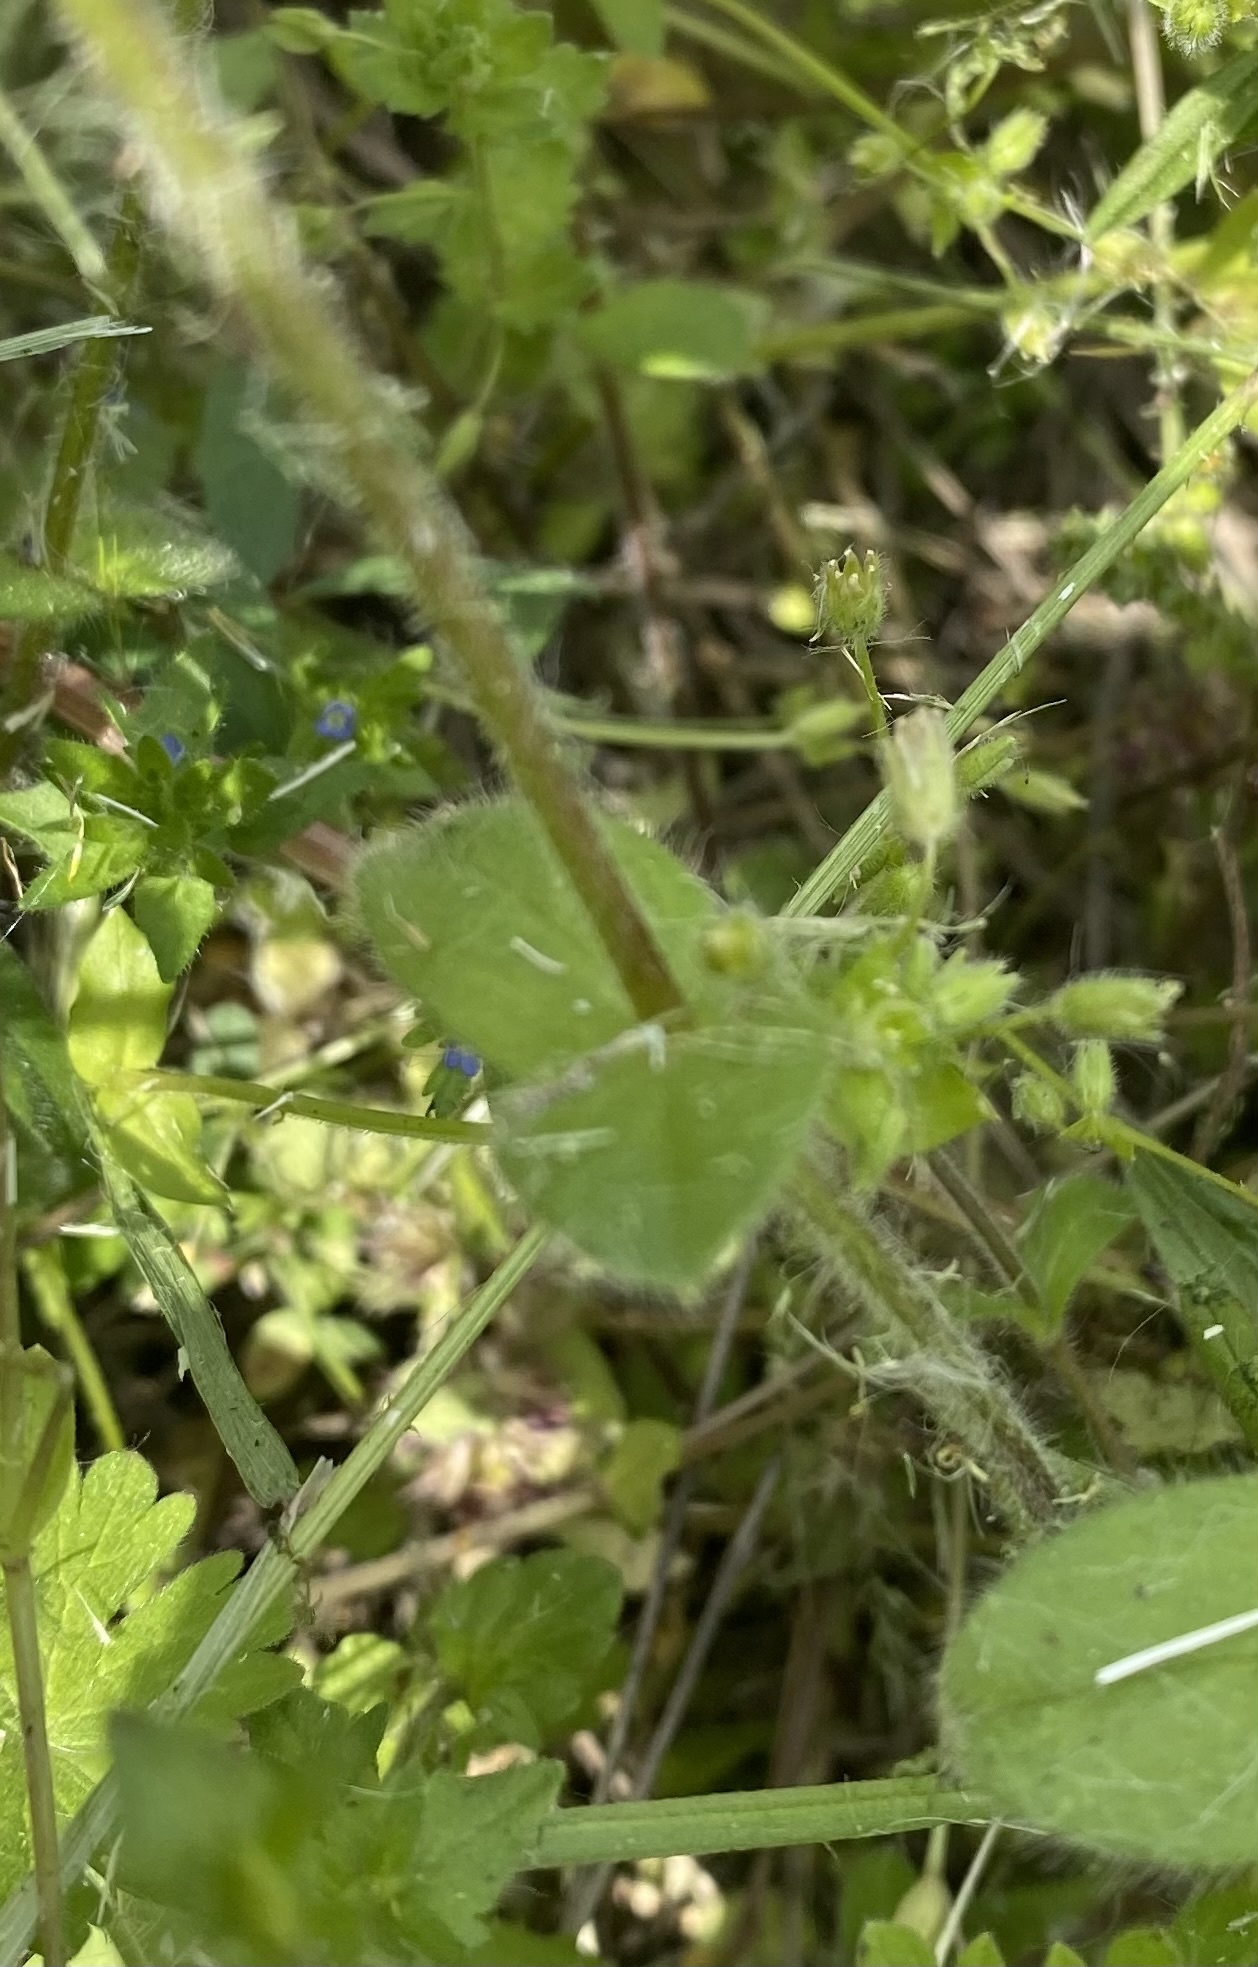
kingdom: Plantae
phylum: Tracheophyta
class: Magnoliopsida
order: Caryophyllales
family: Caryophyllaceae
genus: Cerastium
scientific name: Cerastium glomeratum
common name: Sticky chickweed
